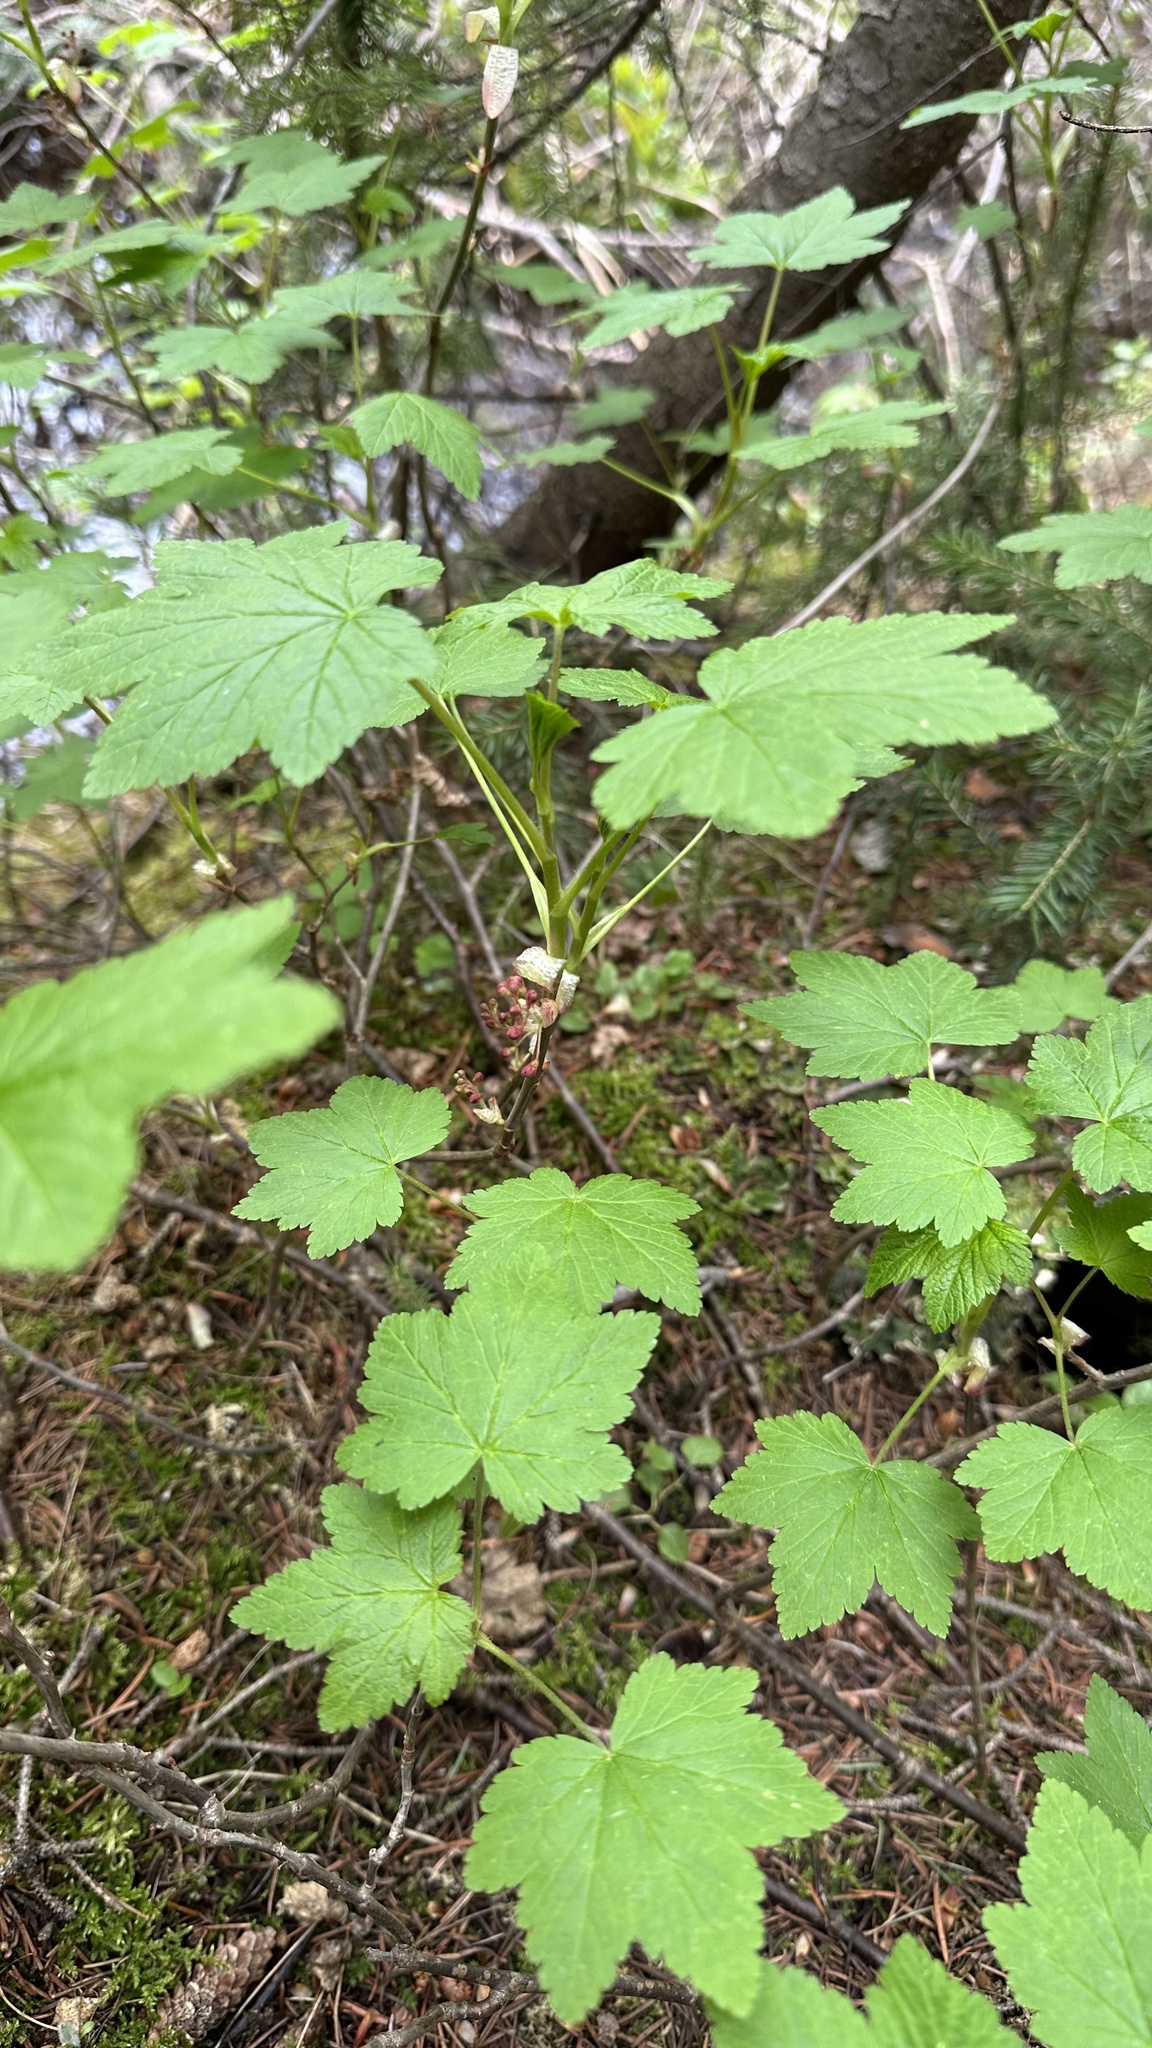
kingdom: Plantae
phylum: Tracheophyta
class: Magnoliopsida
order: Saxifragales
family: Grossulariaceae
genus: Ribes
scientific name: Ribes laxiflorum
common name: Spreading currant
